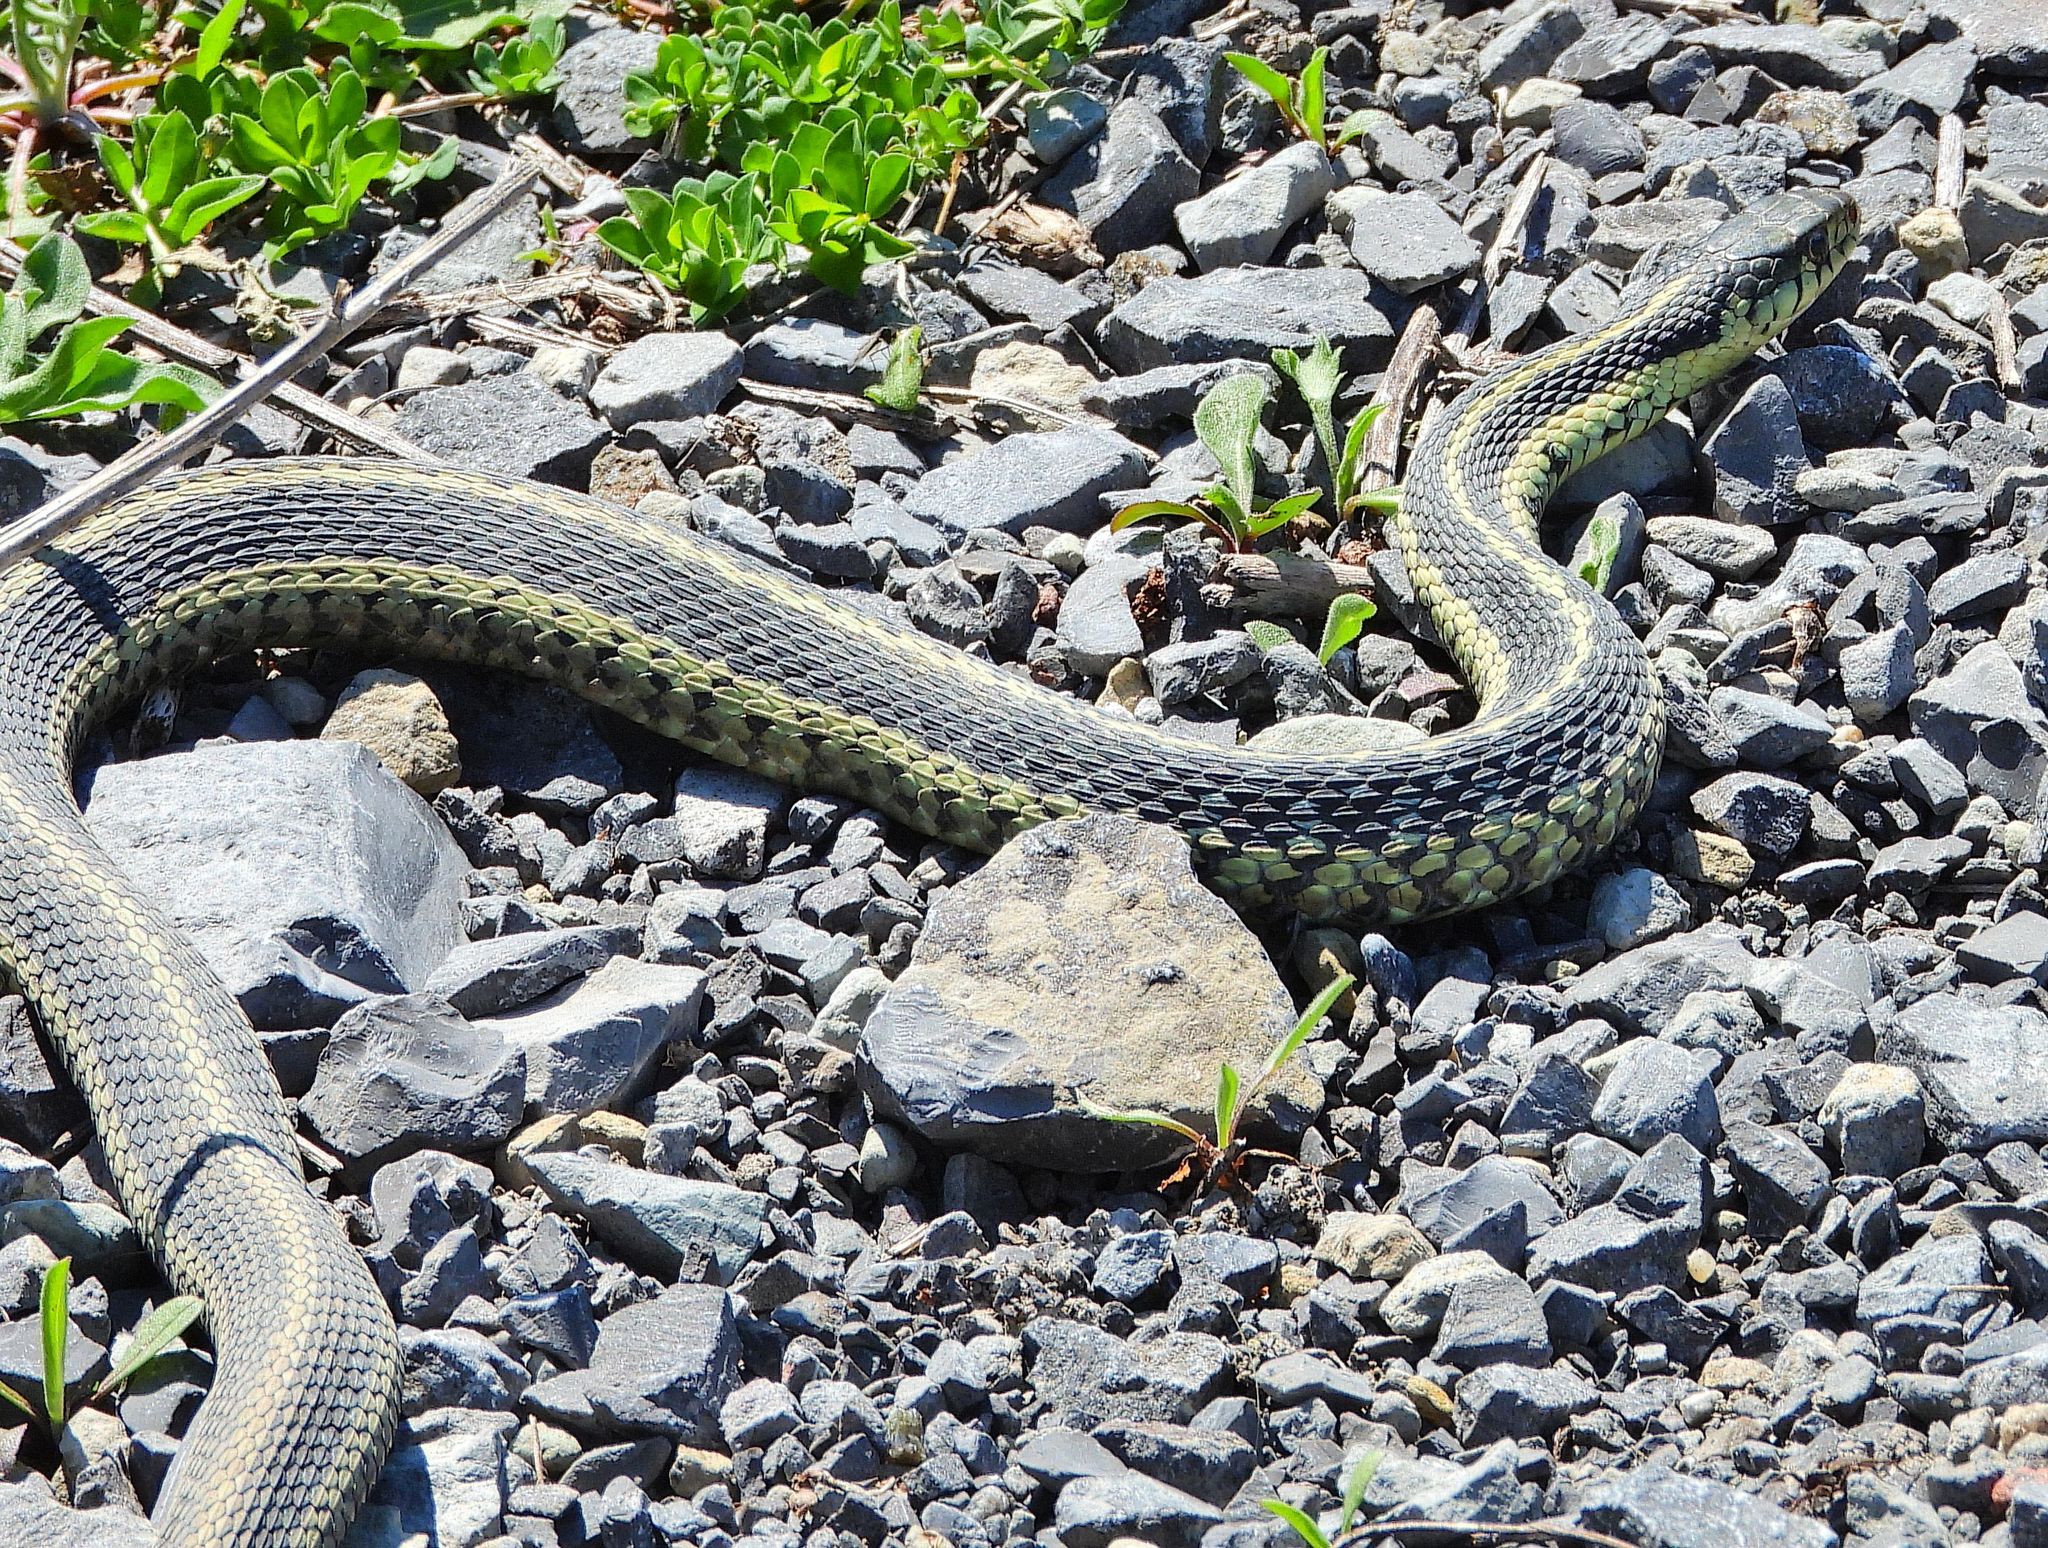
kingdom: Animalia
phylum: Chordata
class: Squamata
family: Colubridae
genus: Thamnophis
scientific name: Thamnophis sirtalis
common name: Common garter snake
